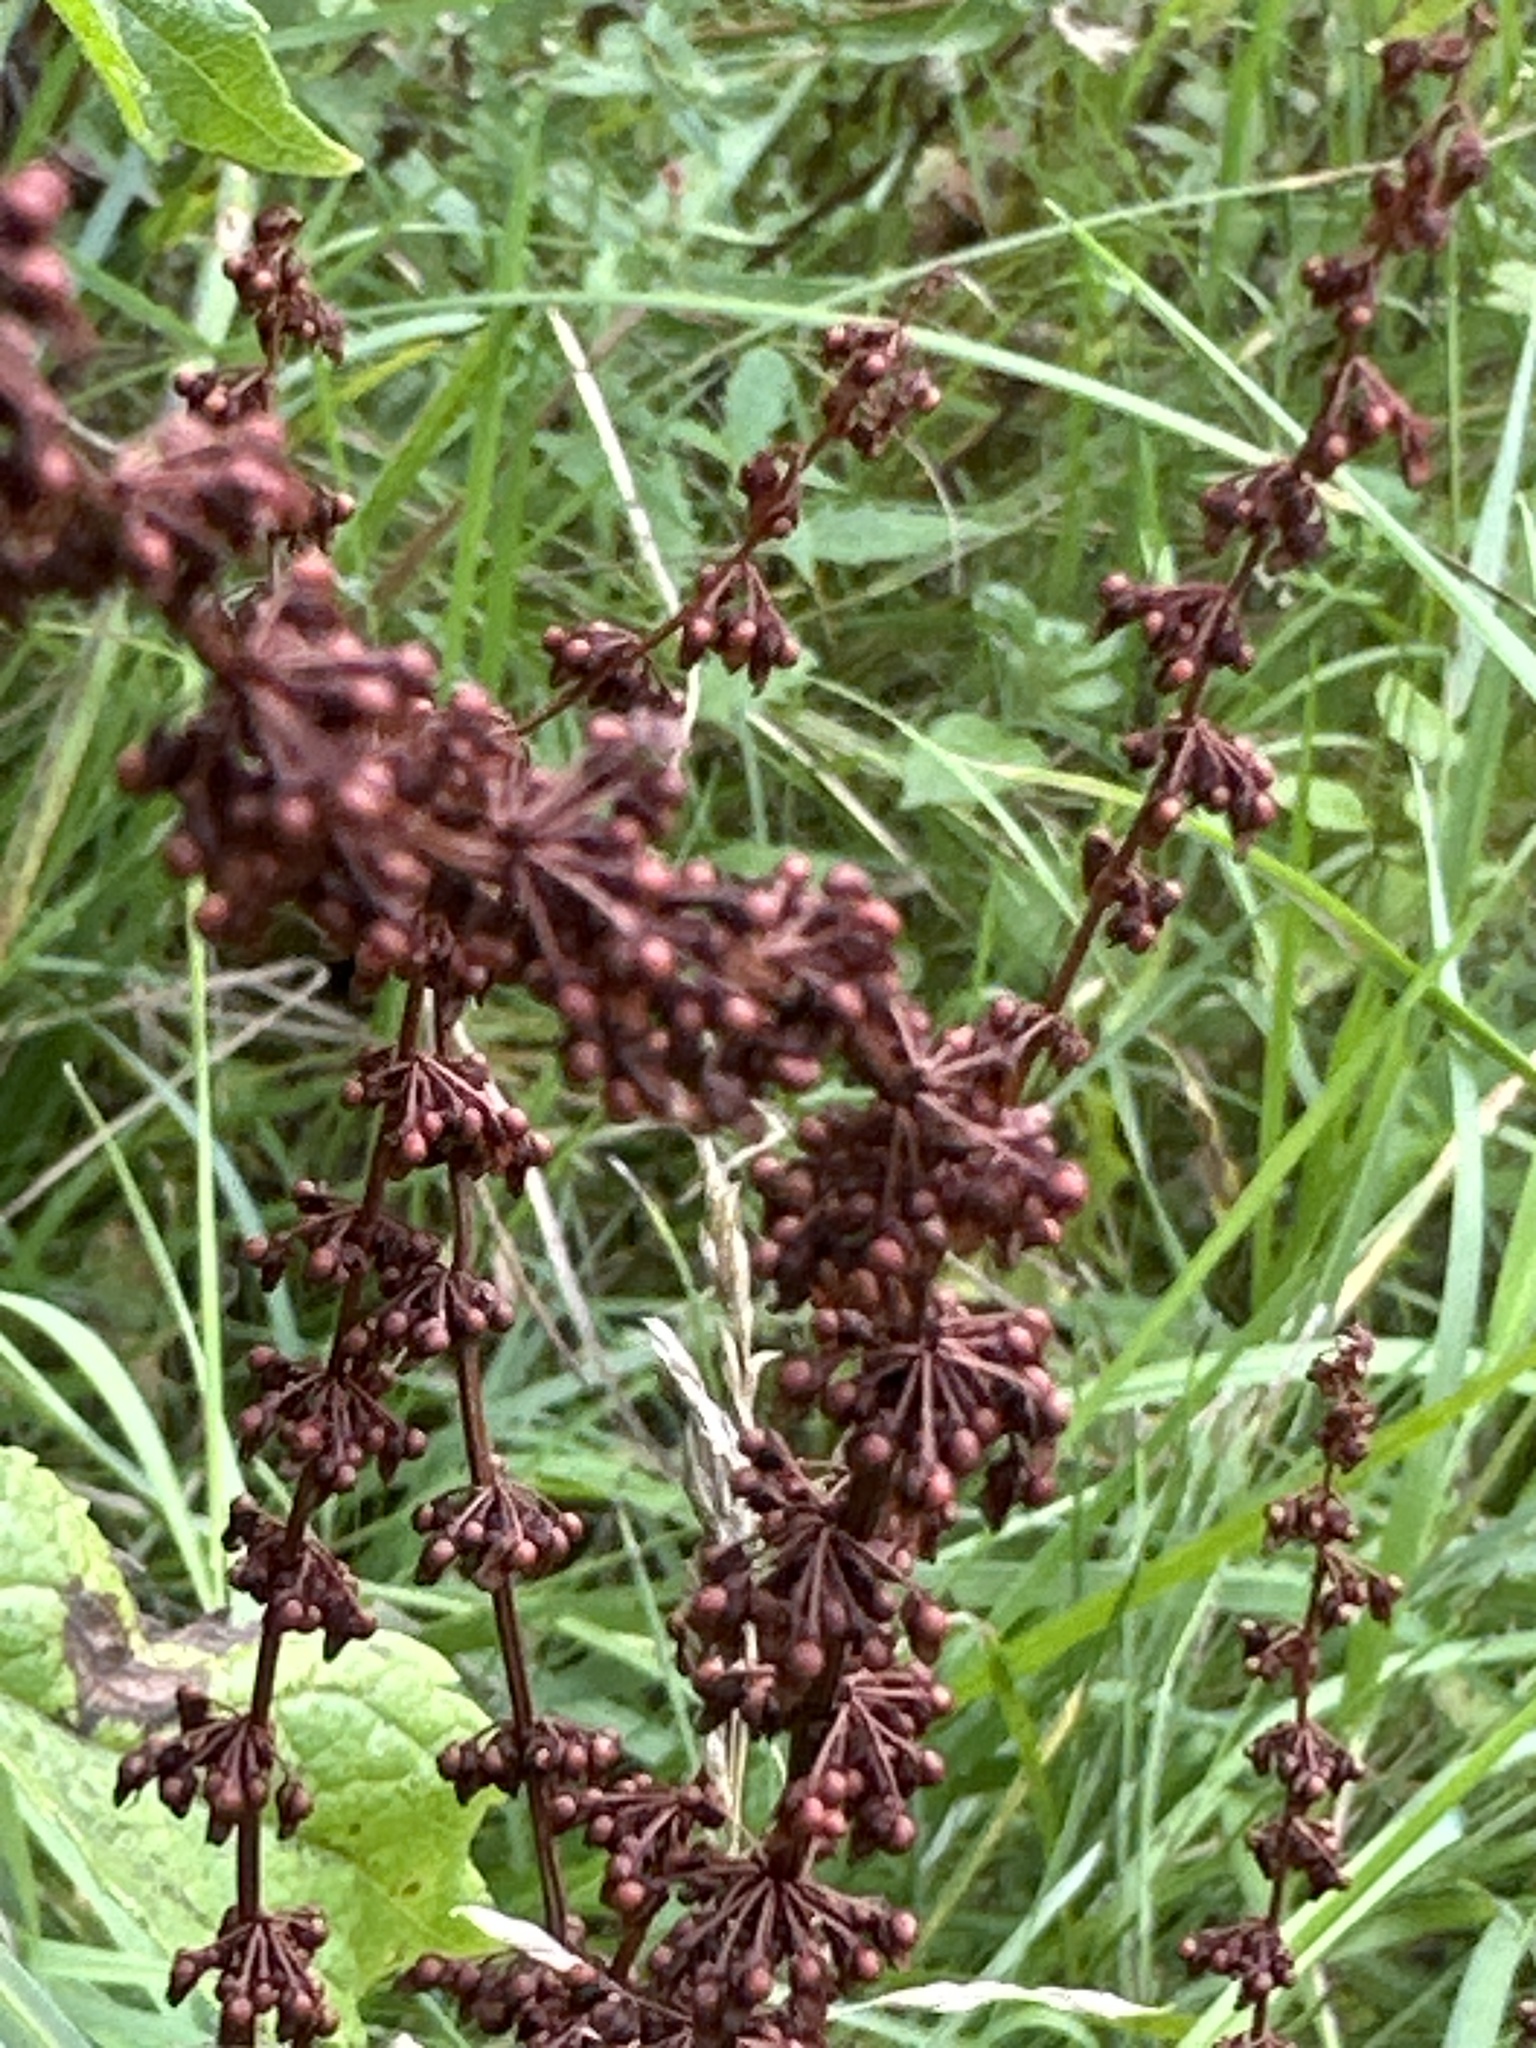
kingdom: Plantae
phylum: Tracheophyta
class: Magnoliopsida
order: Caryophyllales
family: Polygonaceae
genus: Rumex
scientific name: Rumex sanguineus
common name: Wood dock
